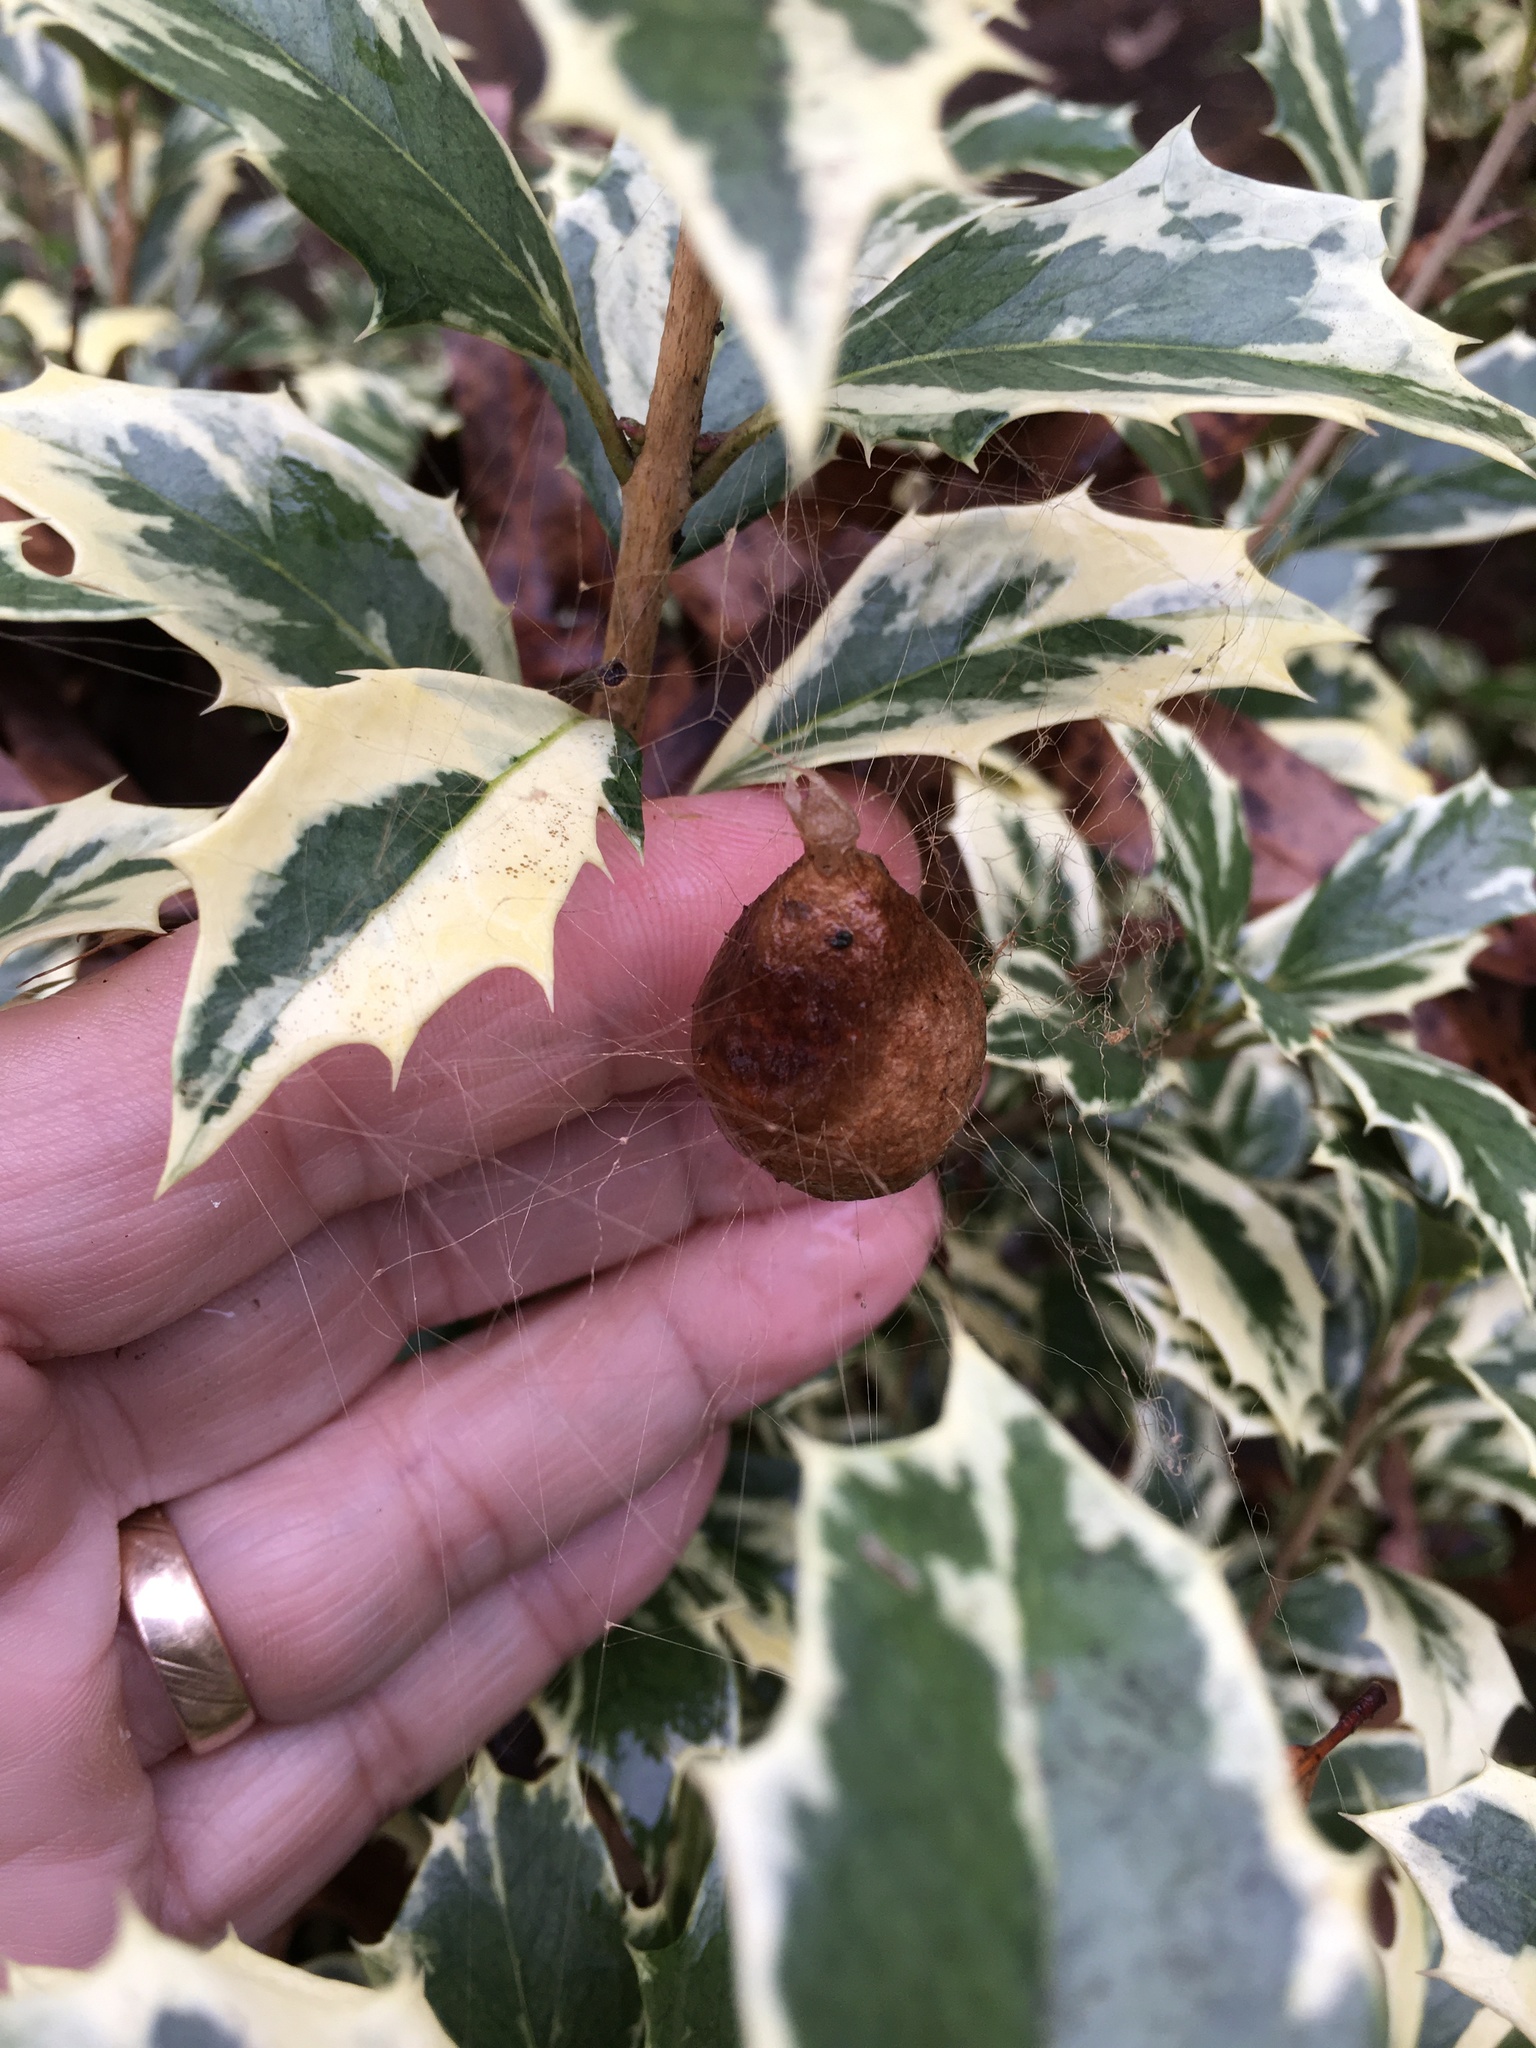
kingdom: Animalia
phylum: Arthropoda
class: Arachnida
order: Araneae
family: Araneidae
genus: Argiope
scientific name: Argiope aurantia
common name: Orb weavers
